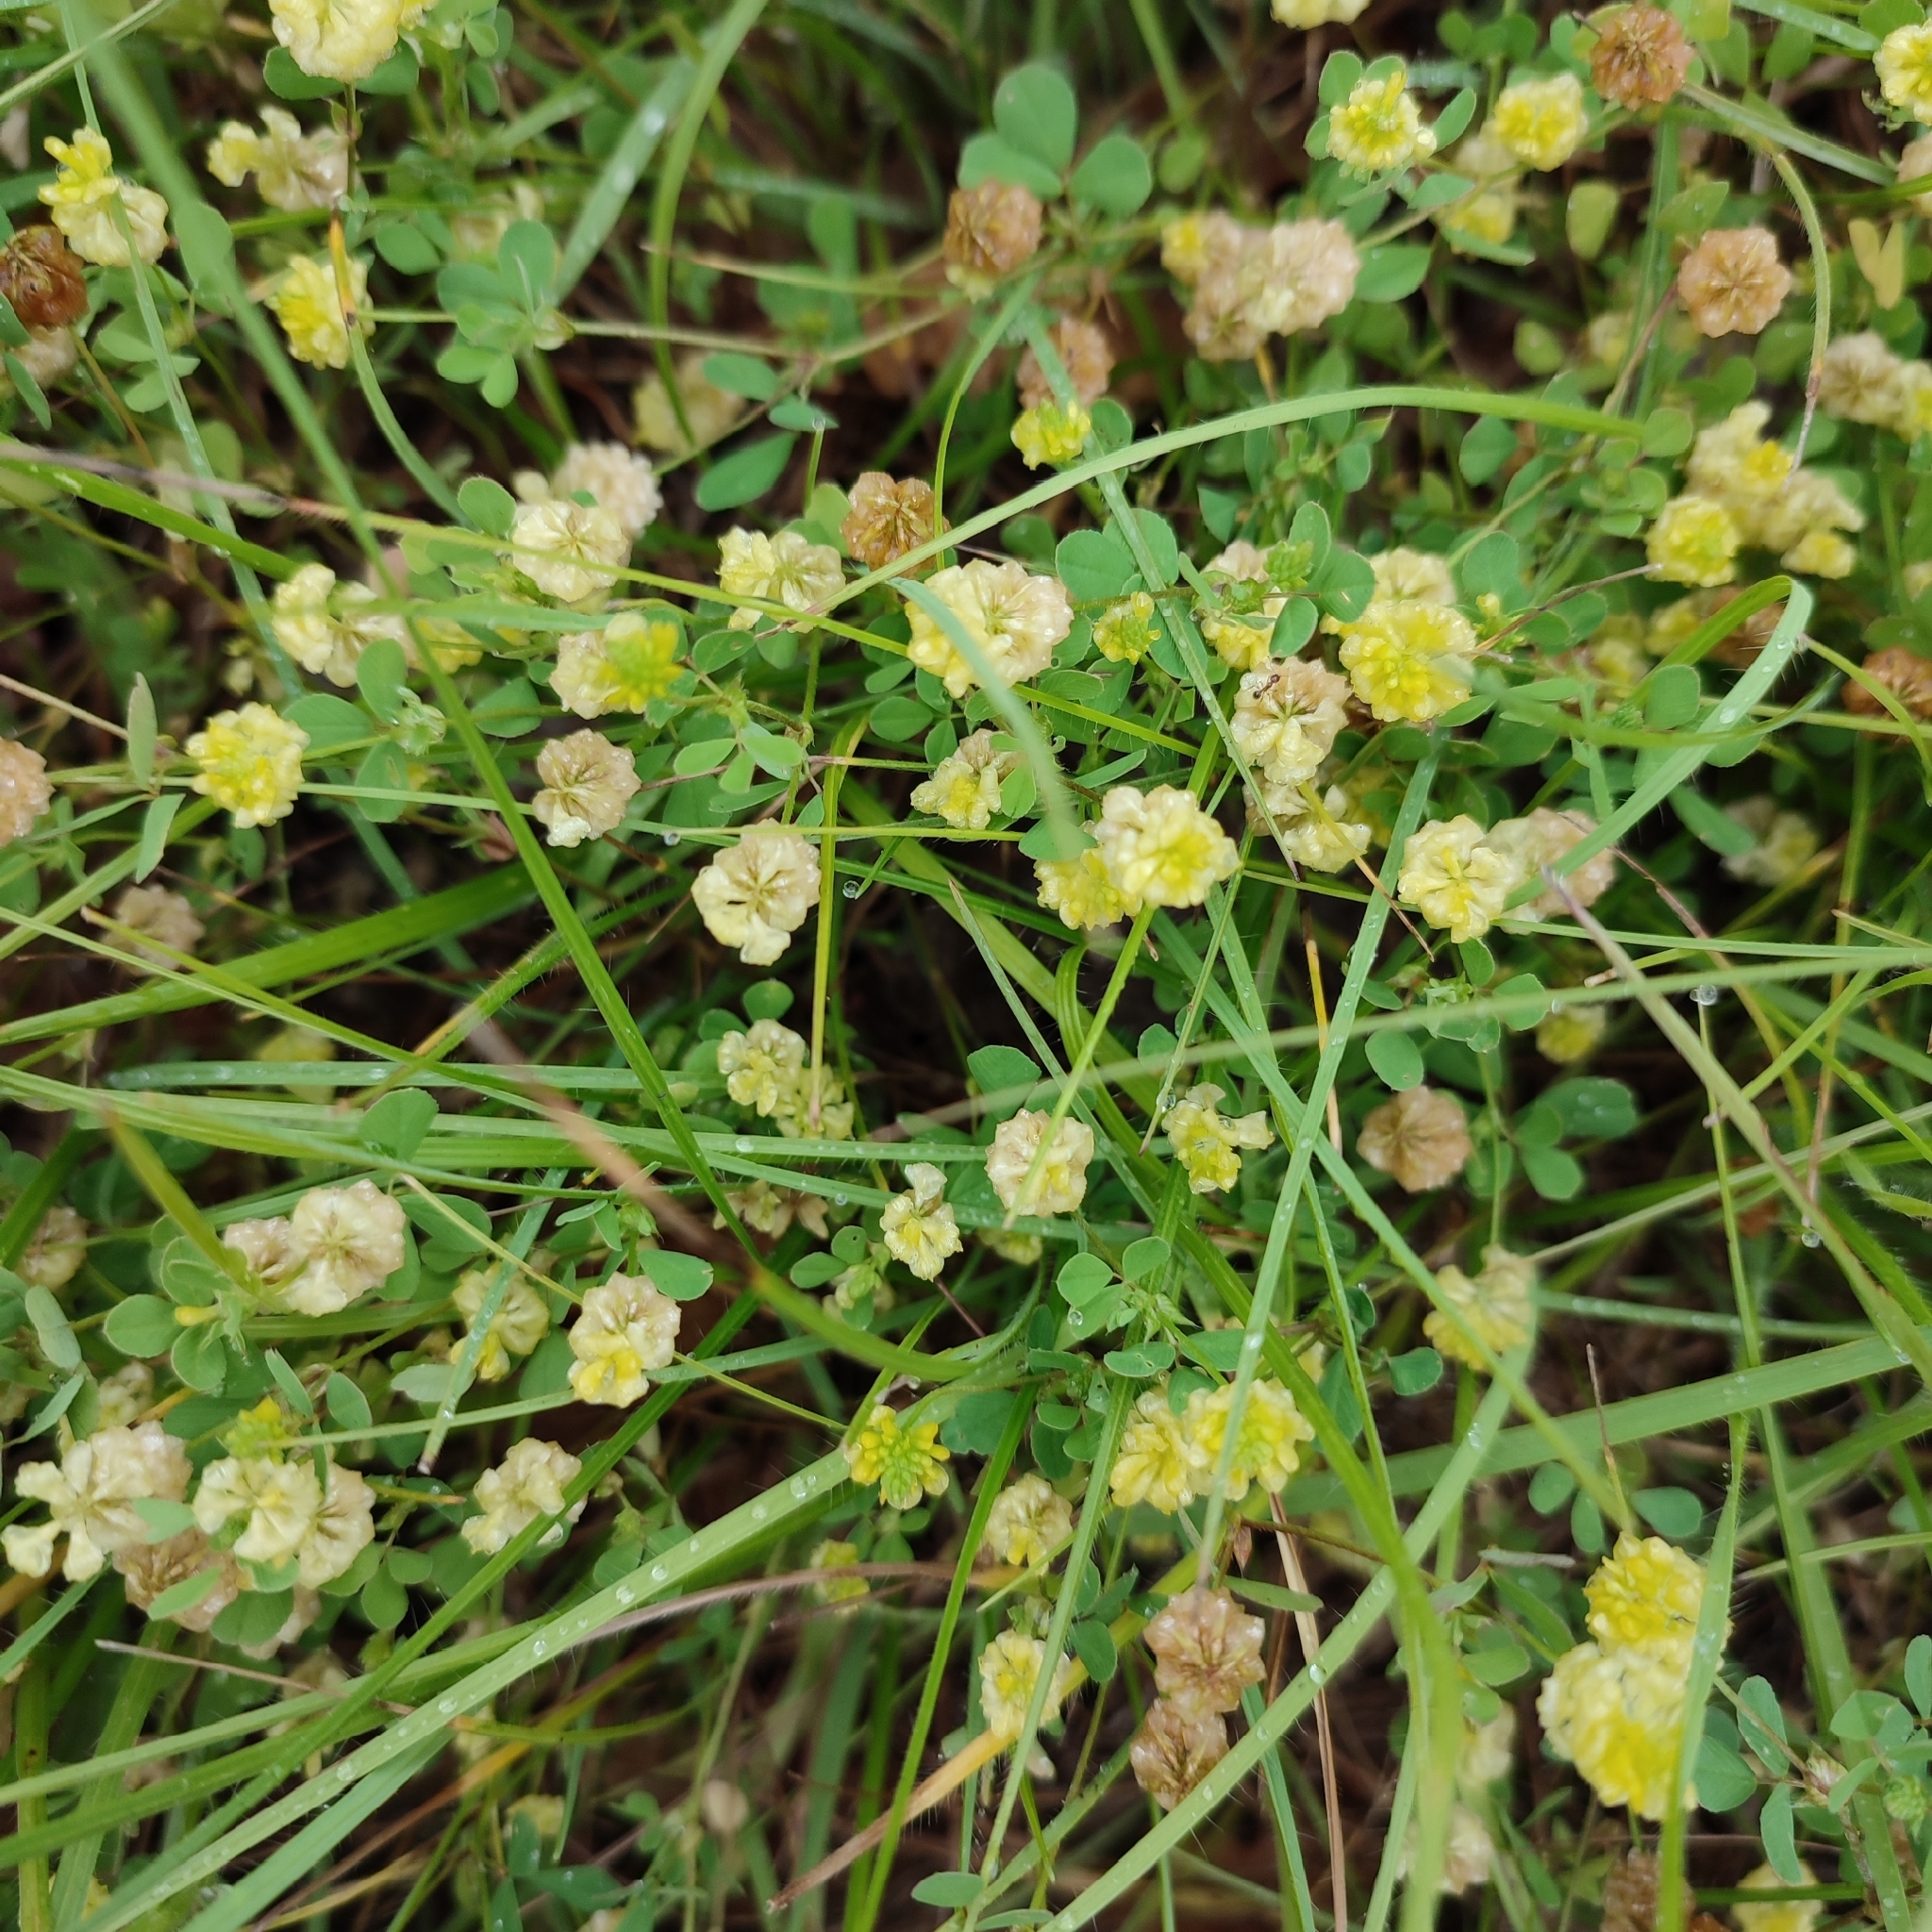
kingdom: Plantae
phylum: Tracheophyta
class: Magnoliopsida
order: Fabales
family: Fabaceae
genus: Trifolium
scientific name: Trifolium campestre
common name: Field clover
